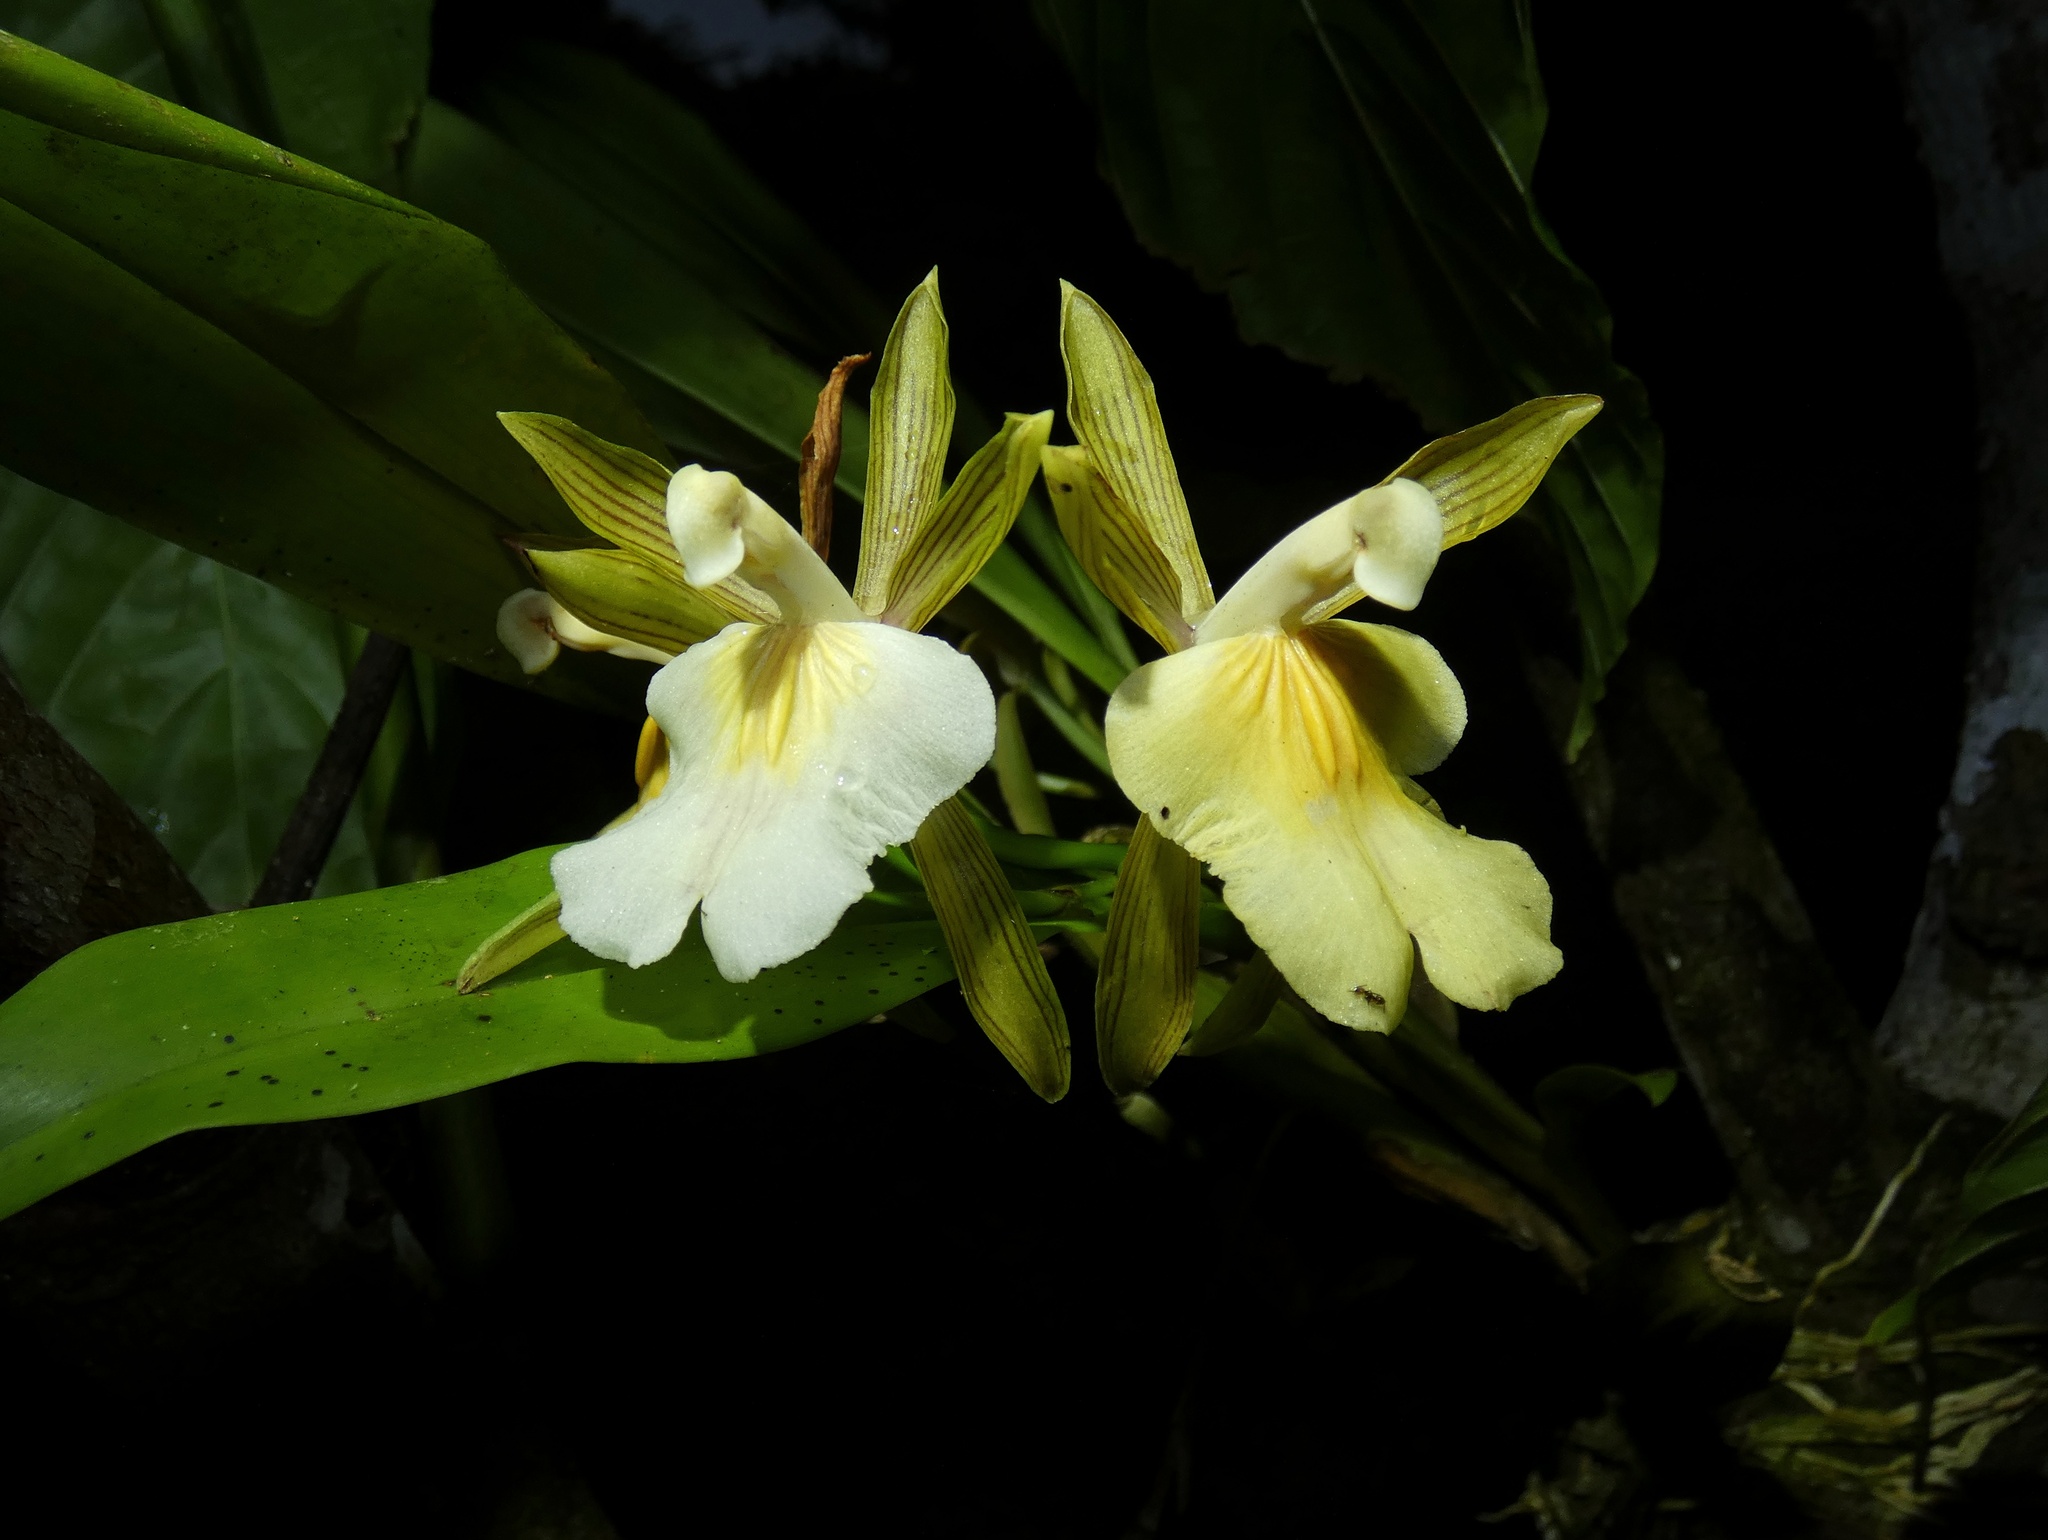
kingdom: Plantae
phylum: Tracheophyta
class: Liliopsida
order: Asparagales
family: Orchidaceae
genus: Aspasia
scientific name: Aspasia principissa
